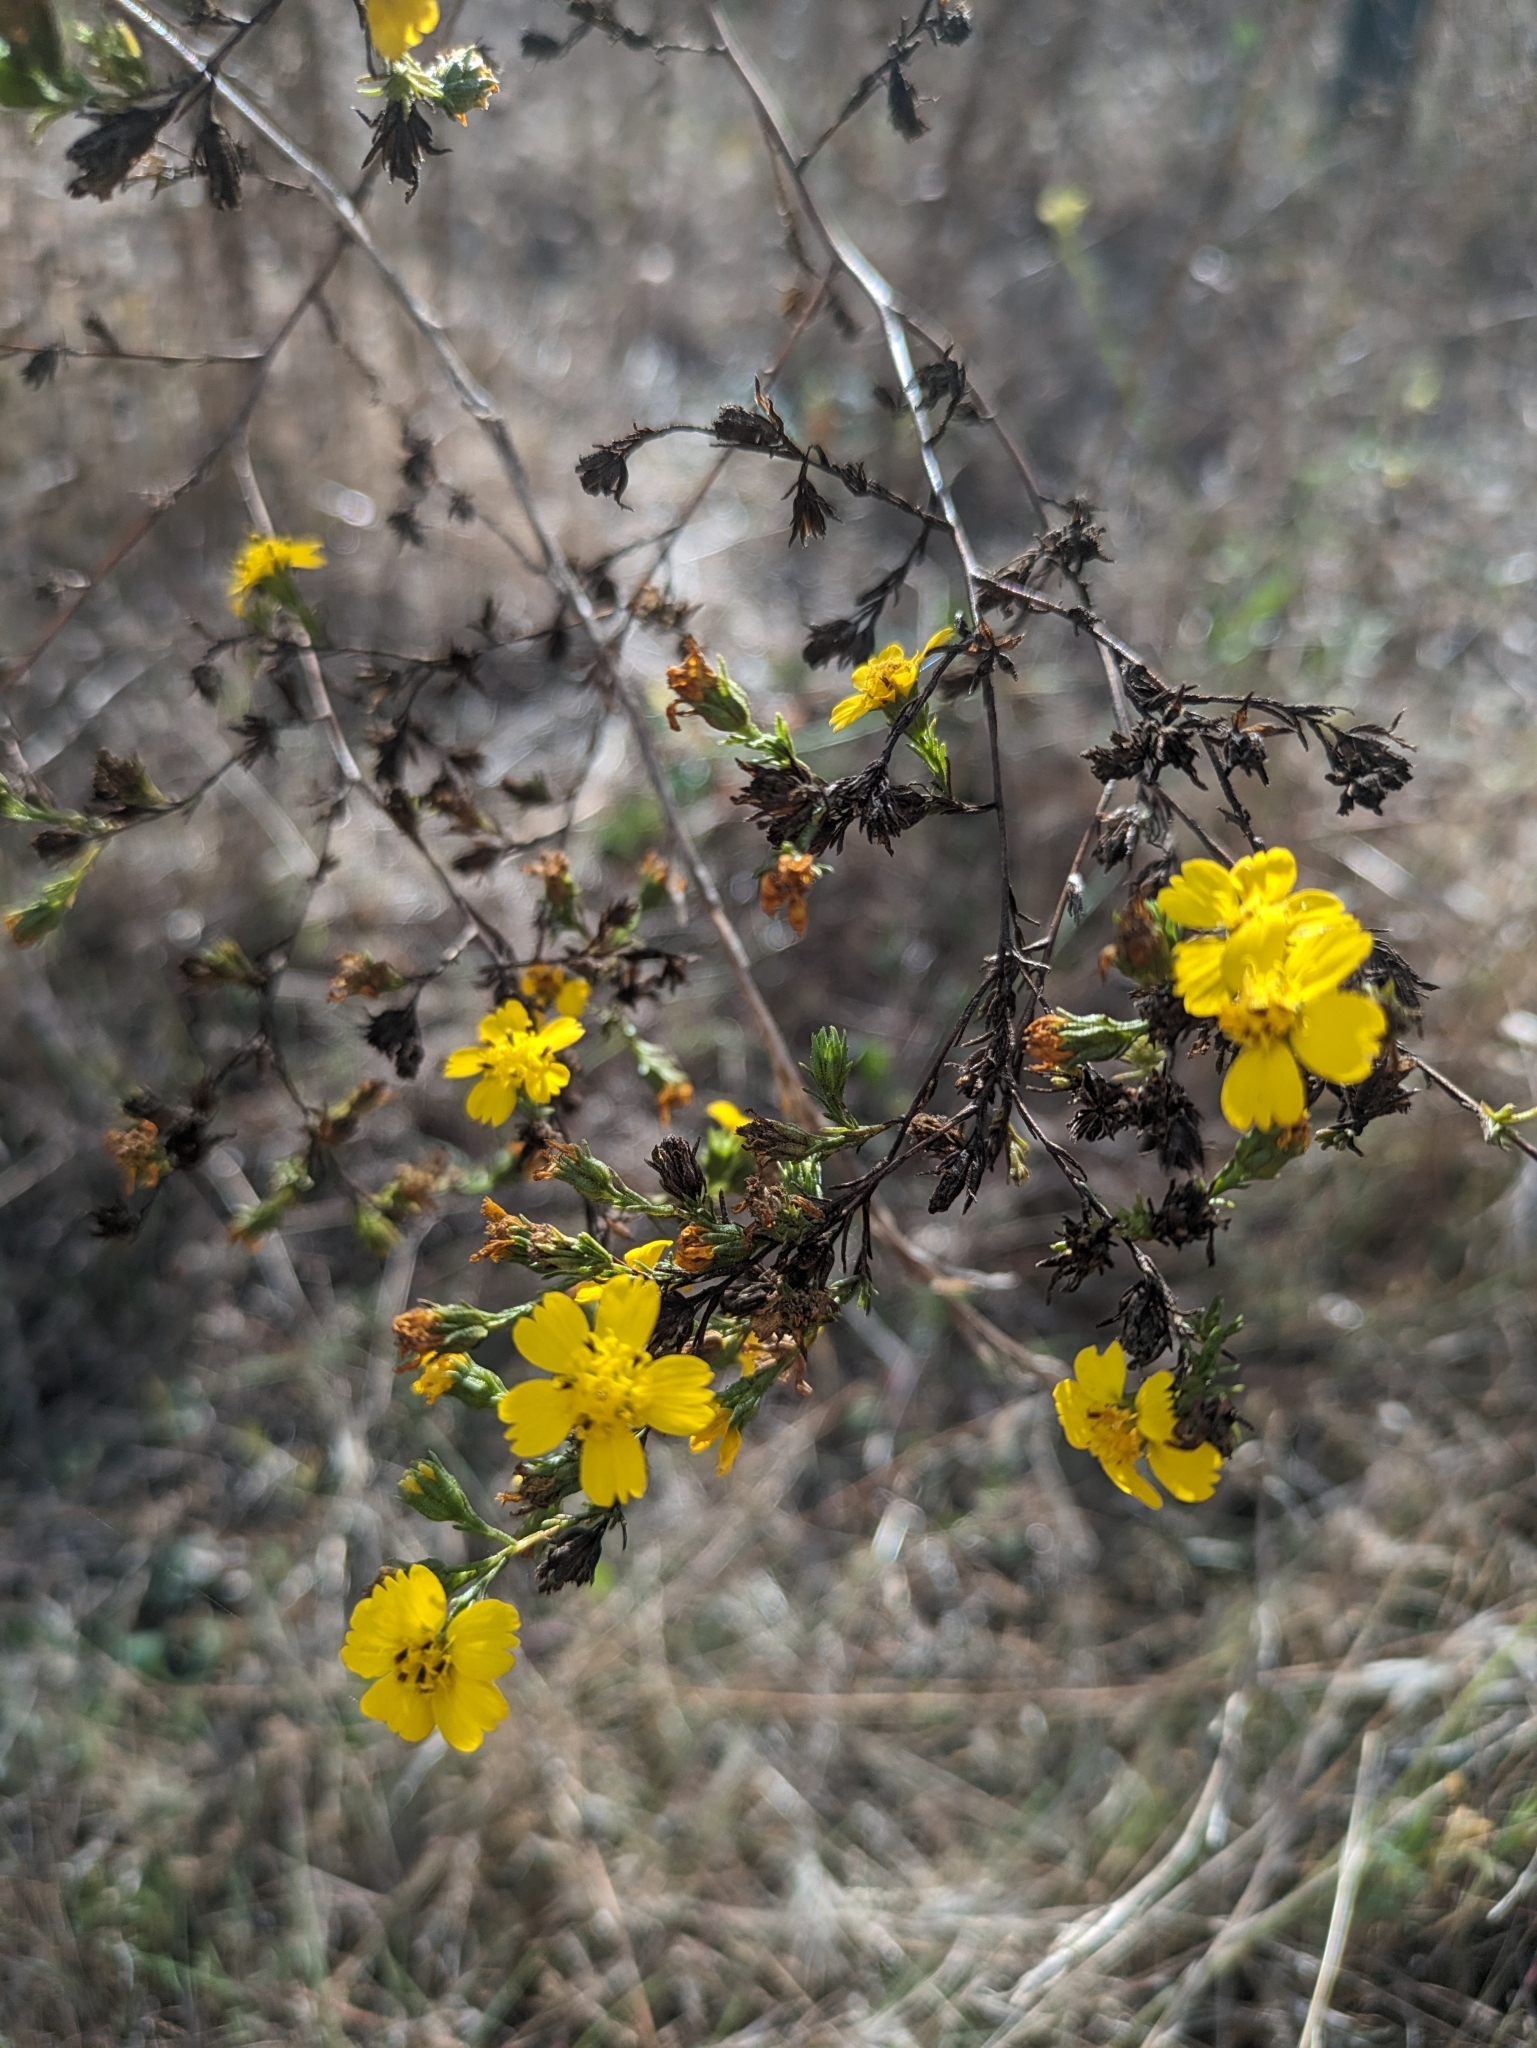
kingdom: Plantae
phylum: Tracheophyta
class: Magnoliopsida
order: Asterales
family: Asteraceae
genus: Deinandra
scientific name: Deinandra fasciculata
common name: Clustered tarweed
